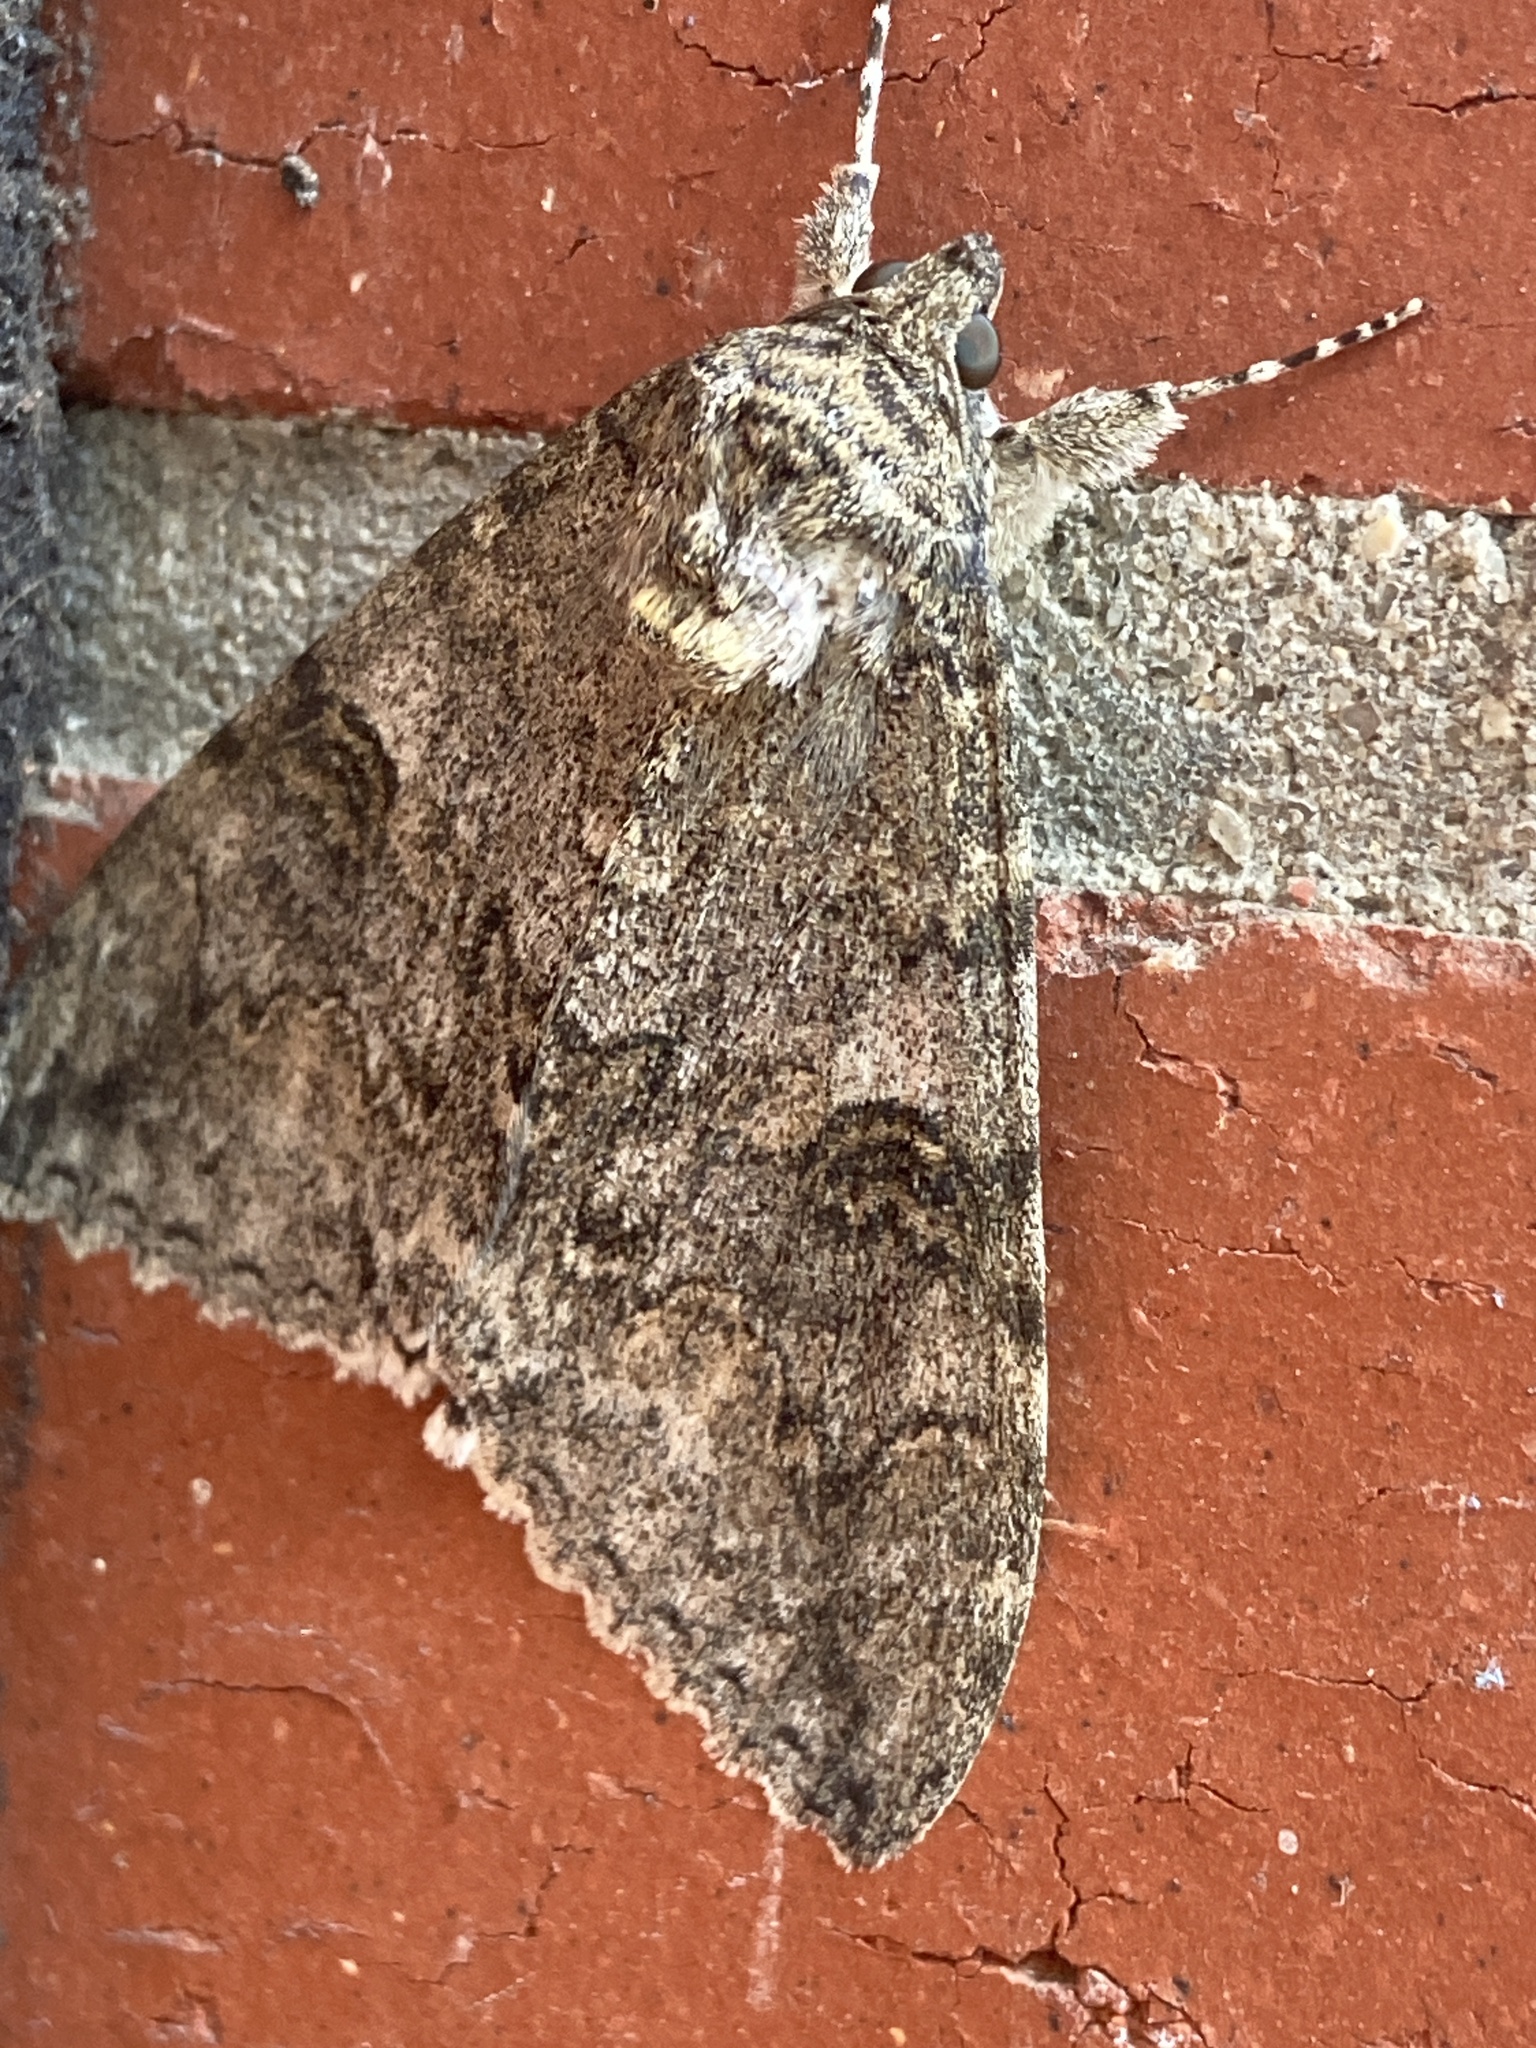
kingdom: Animalia
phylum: Arthropoda
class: Insecta
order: Lepidoptera
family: Erebidae
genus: Catocala
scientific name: Catocala nupta
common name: Red underwing
